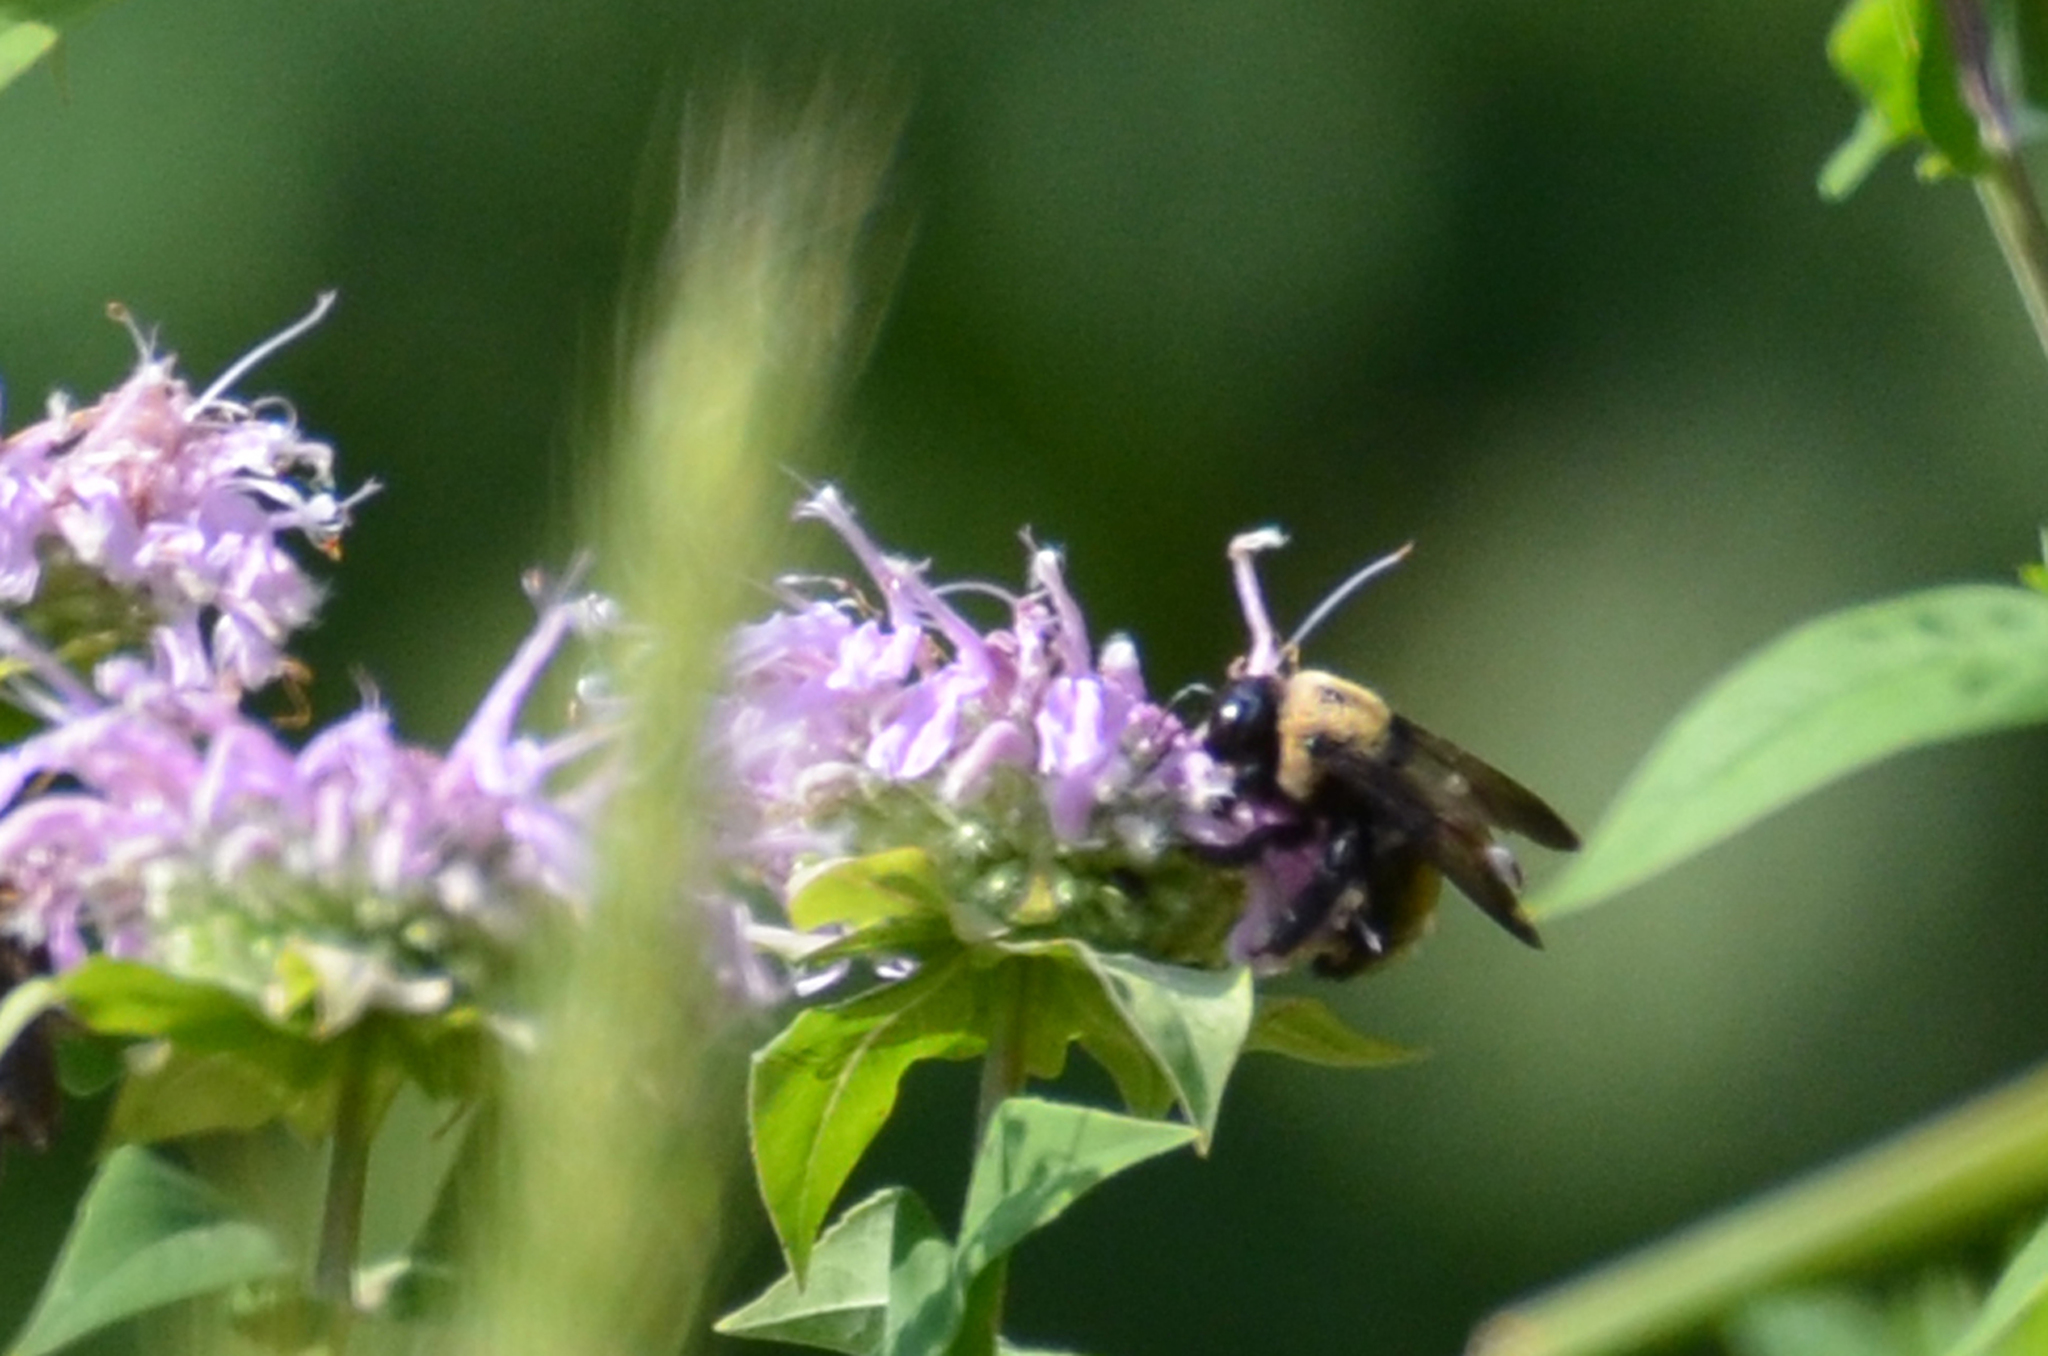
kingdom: Animalia
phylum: Arthropoda
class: Insecta
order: Hymenoptera
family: Apidae
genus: Xylocopa
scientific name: Xylocopa virginica
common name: Carpenter bee
